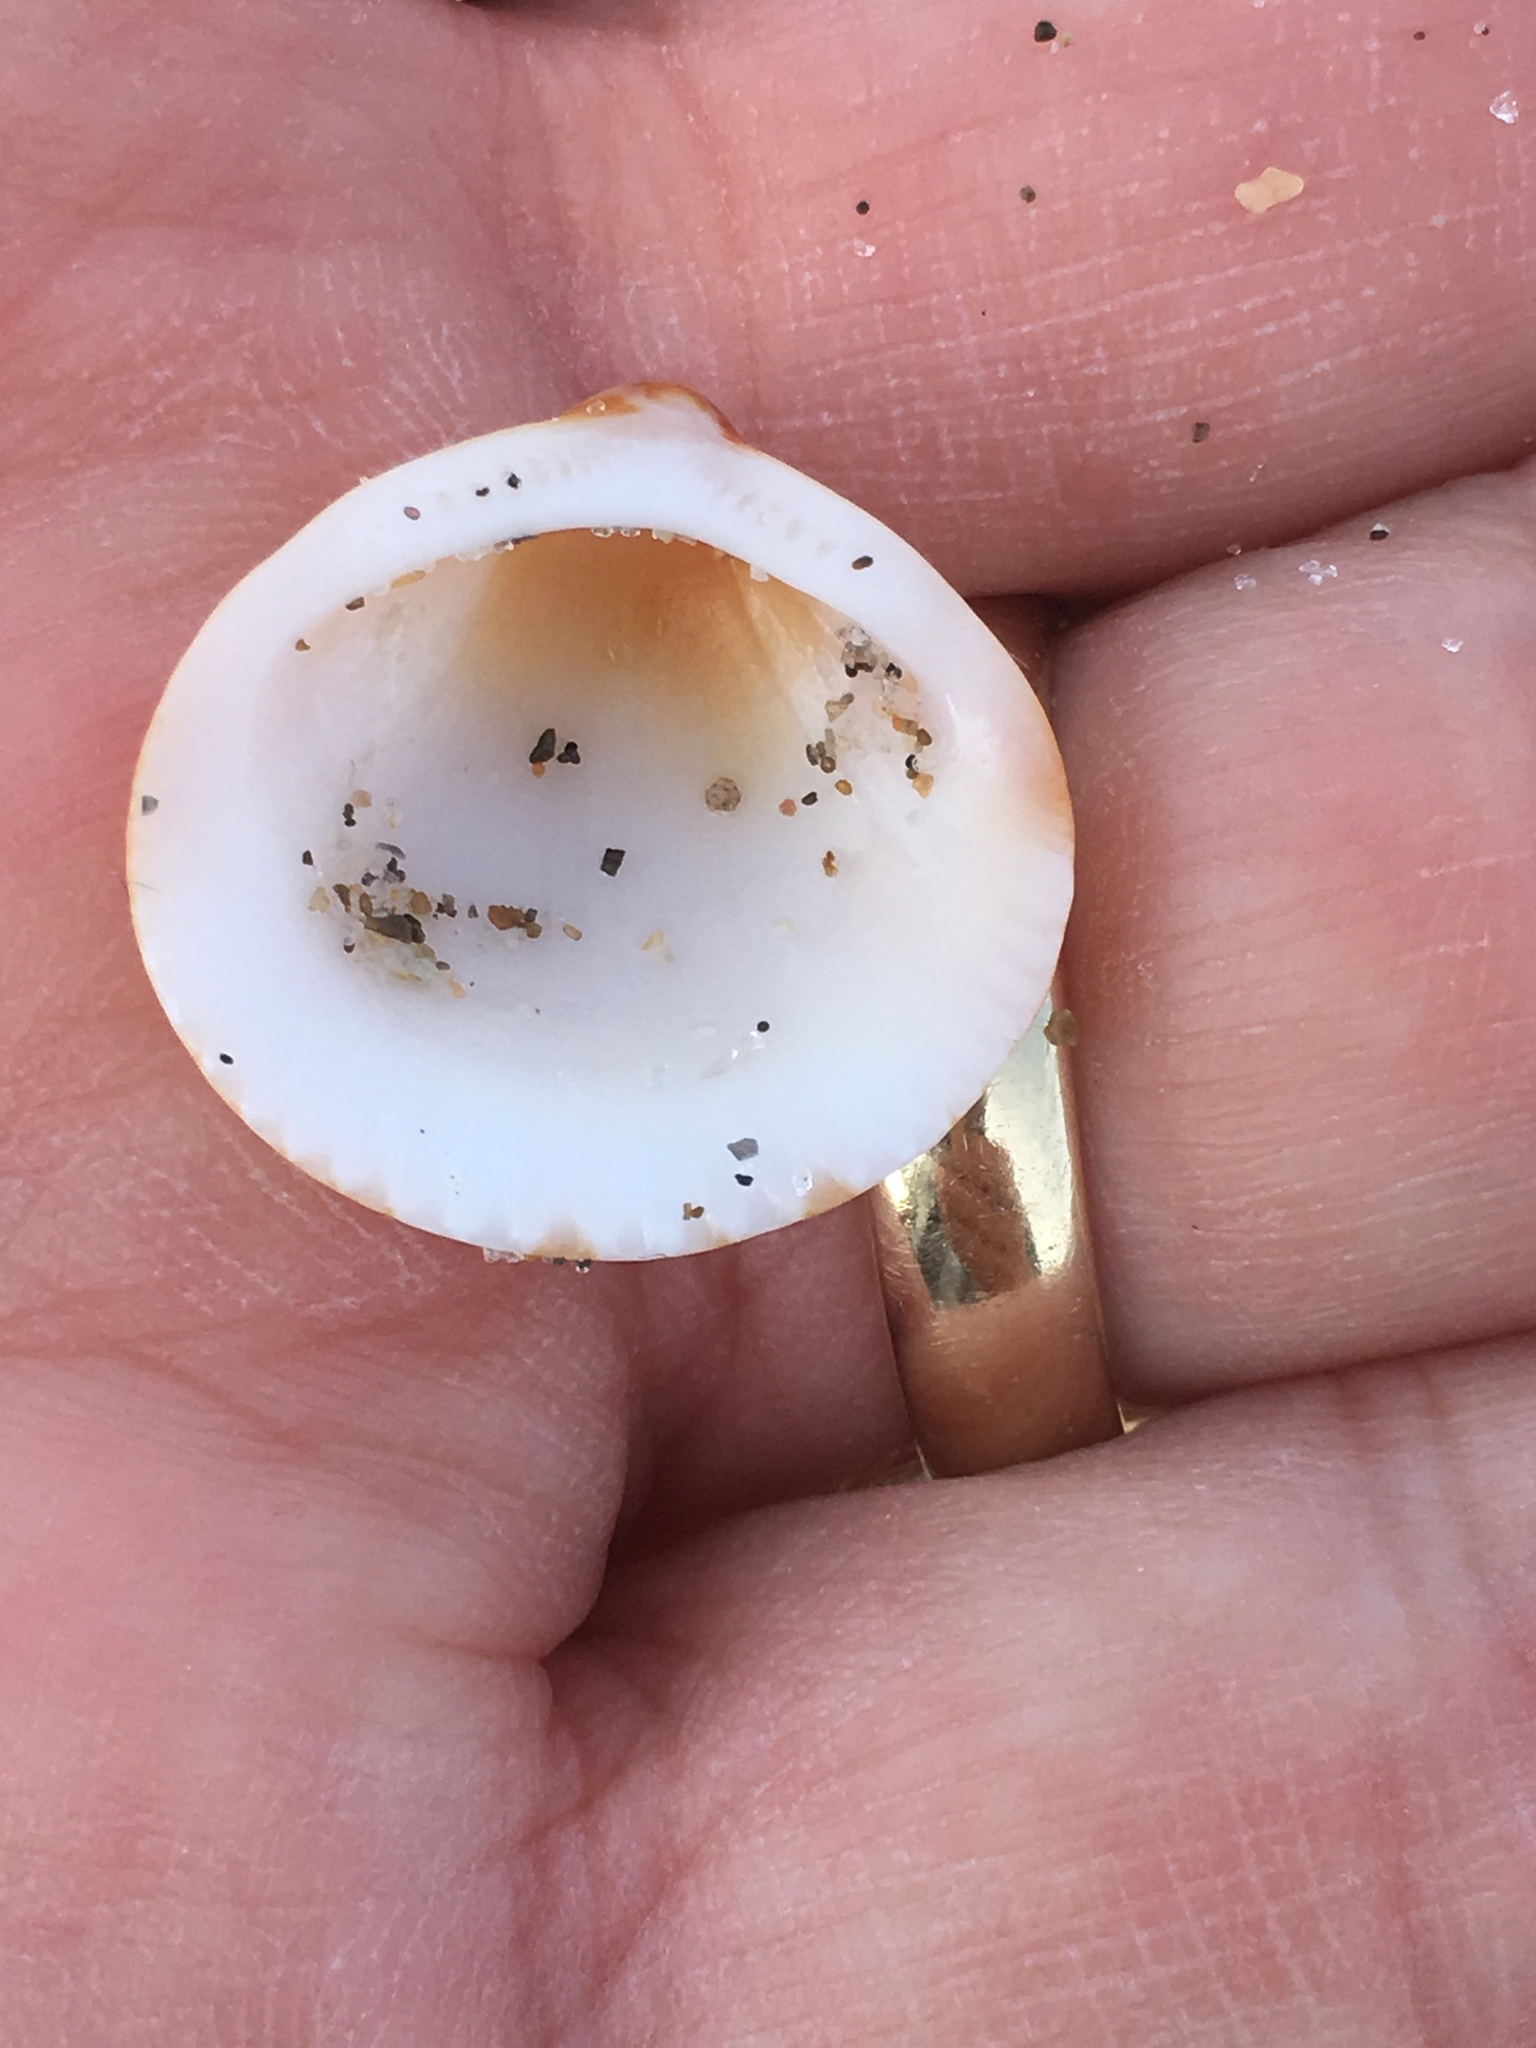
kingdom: Animalia
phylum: Mollusca
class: Bivalvia
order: Arcida
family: Glycymerididae
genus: Glycymeris
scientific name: Glycymeris spectralis
